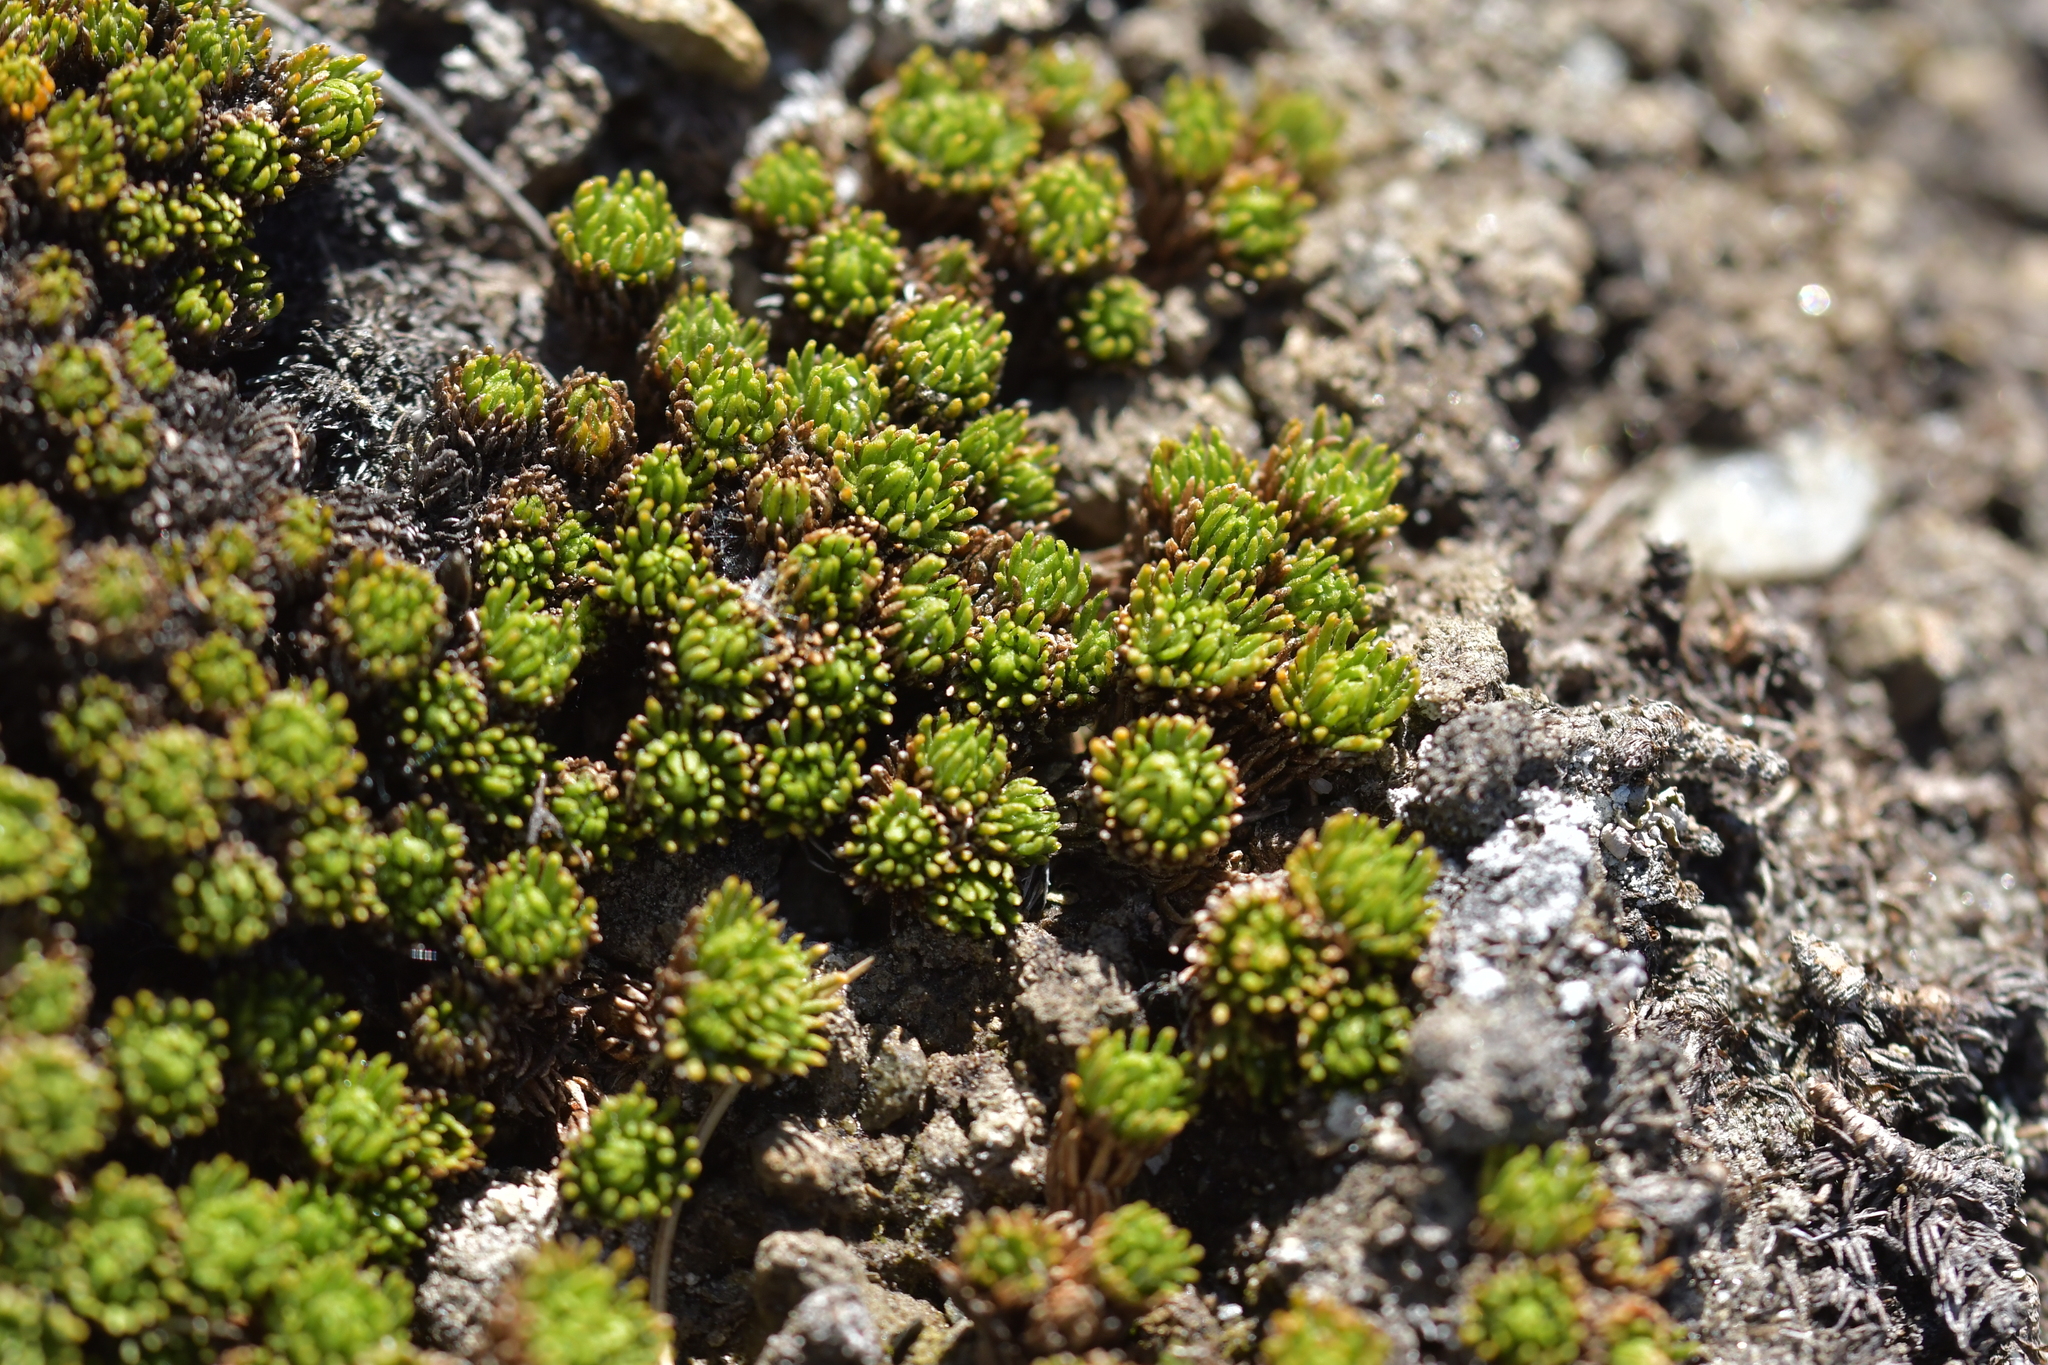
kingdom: Plantae
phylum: Tracheophyta
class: Magnoliopsida
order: Asterales
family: Asteraceae
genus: Leptinella
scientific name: Leptinella goyenii
